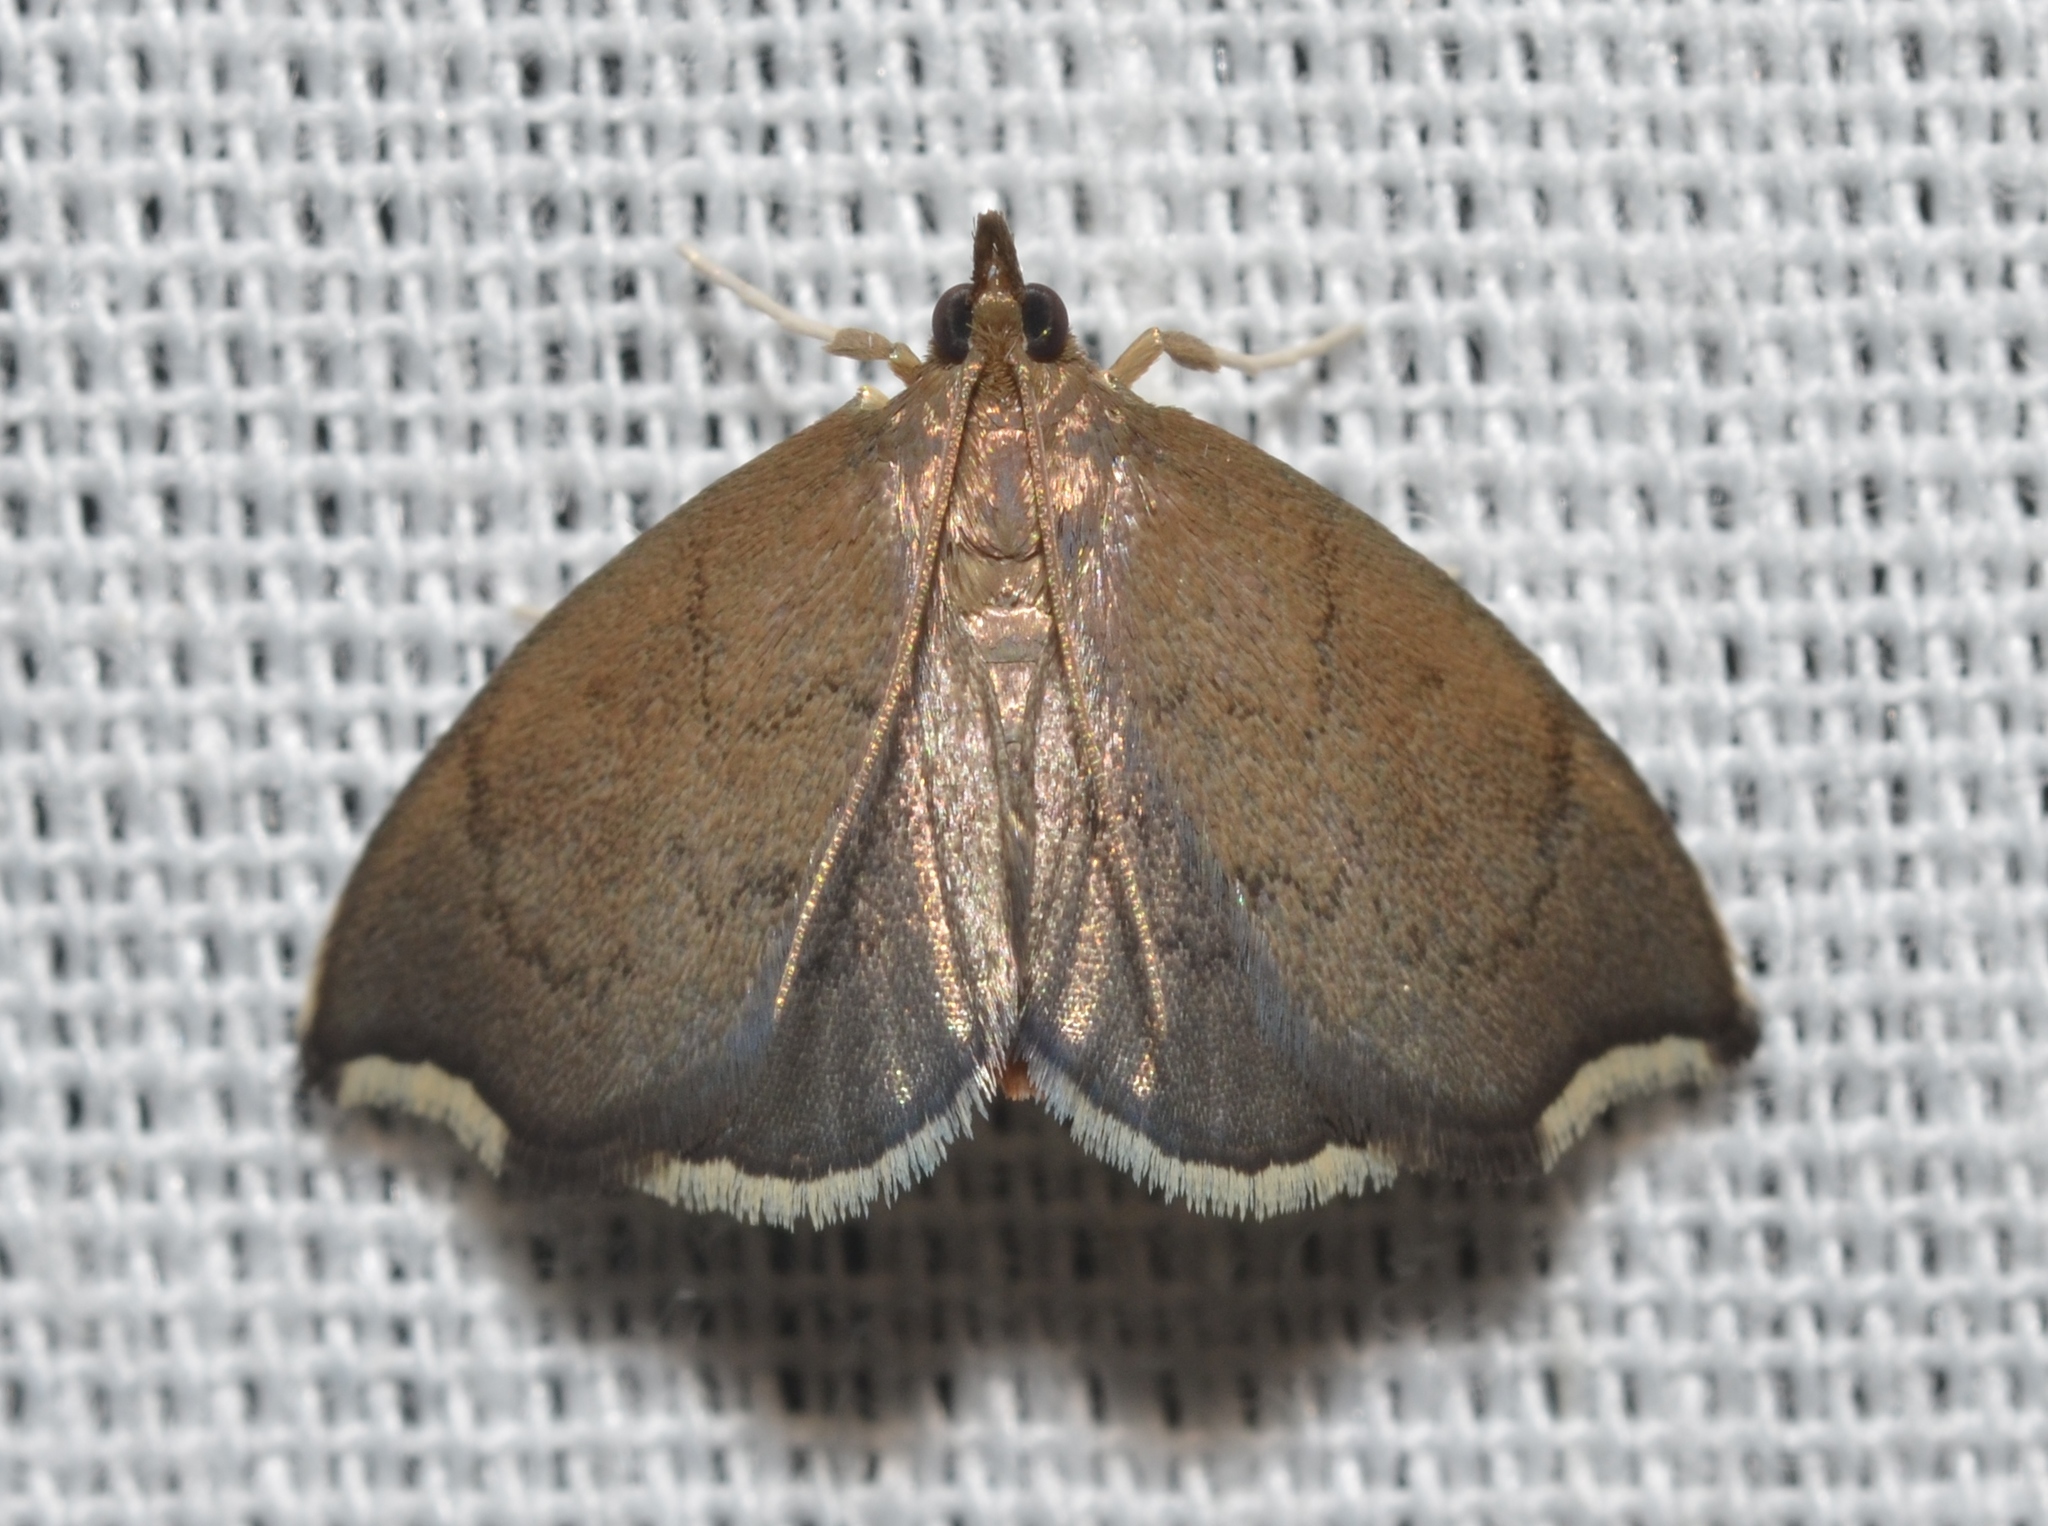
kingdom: Animalia
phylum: Arthropoda
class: Insecta
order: Lepidoptera
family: Crambidae
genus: Perispasta
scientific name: Perispasta caeculalis
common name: Titian peale's moth
